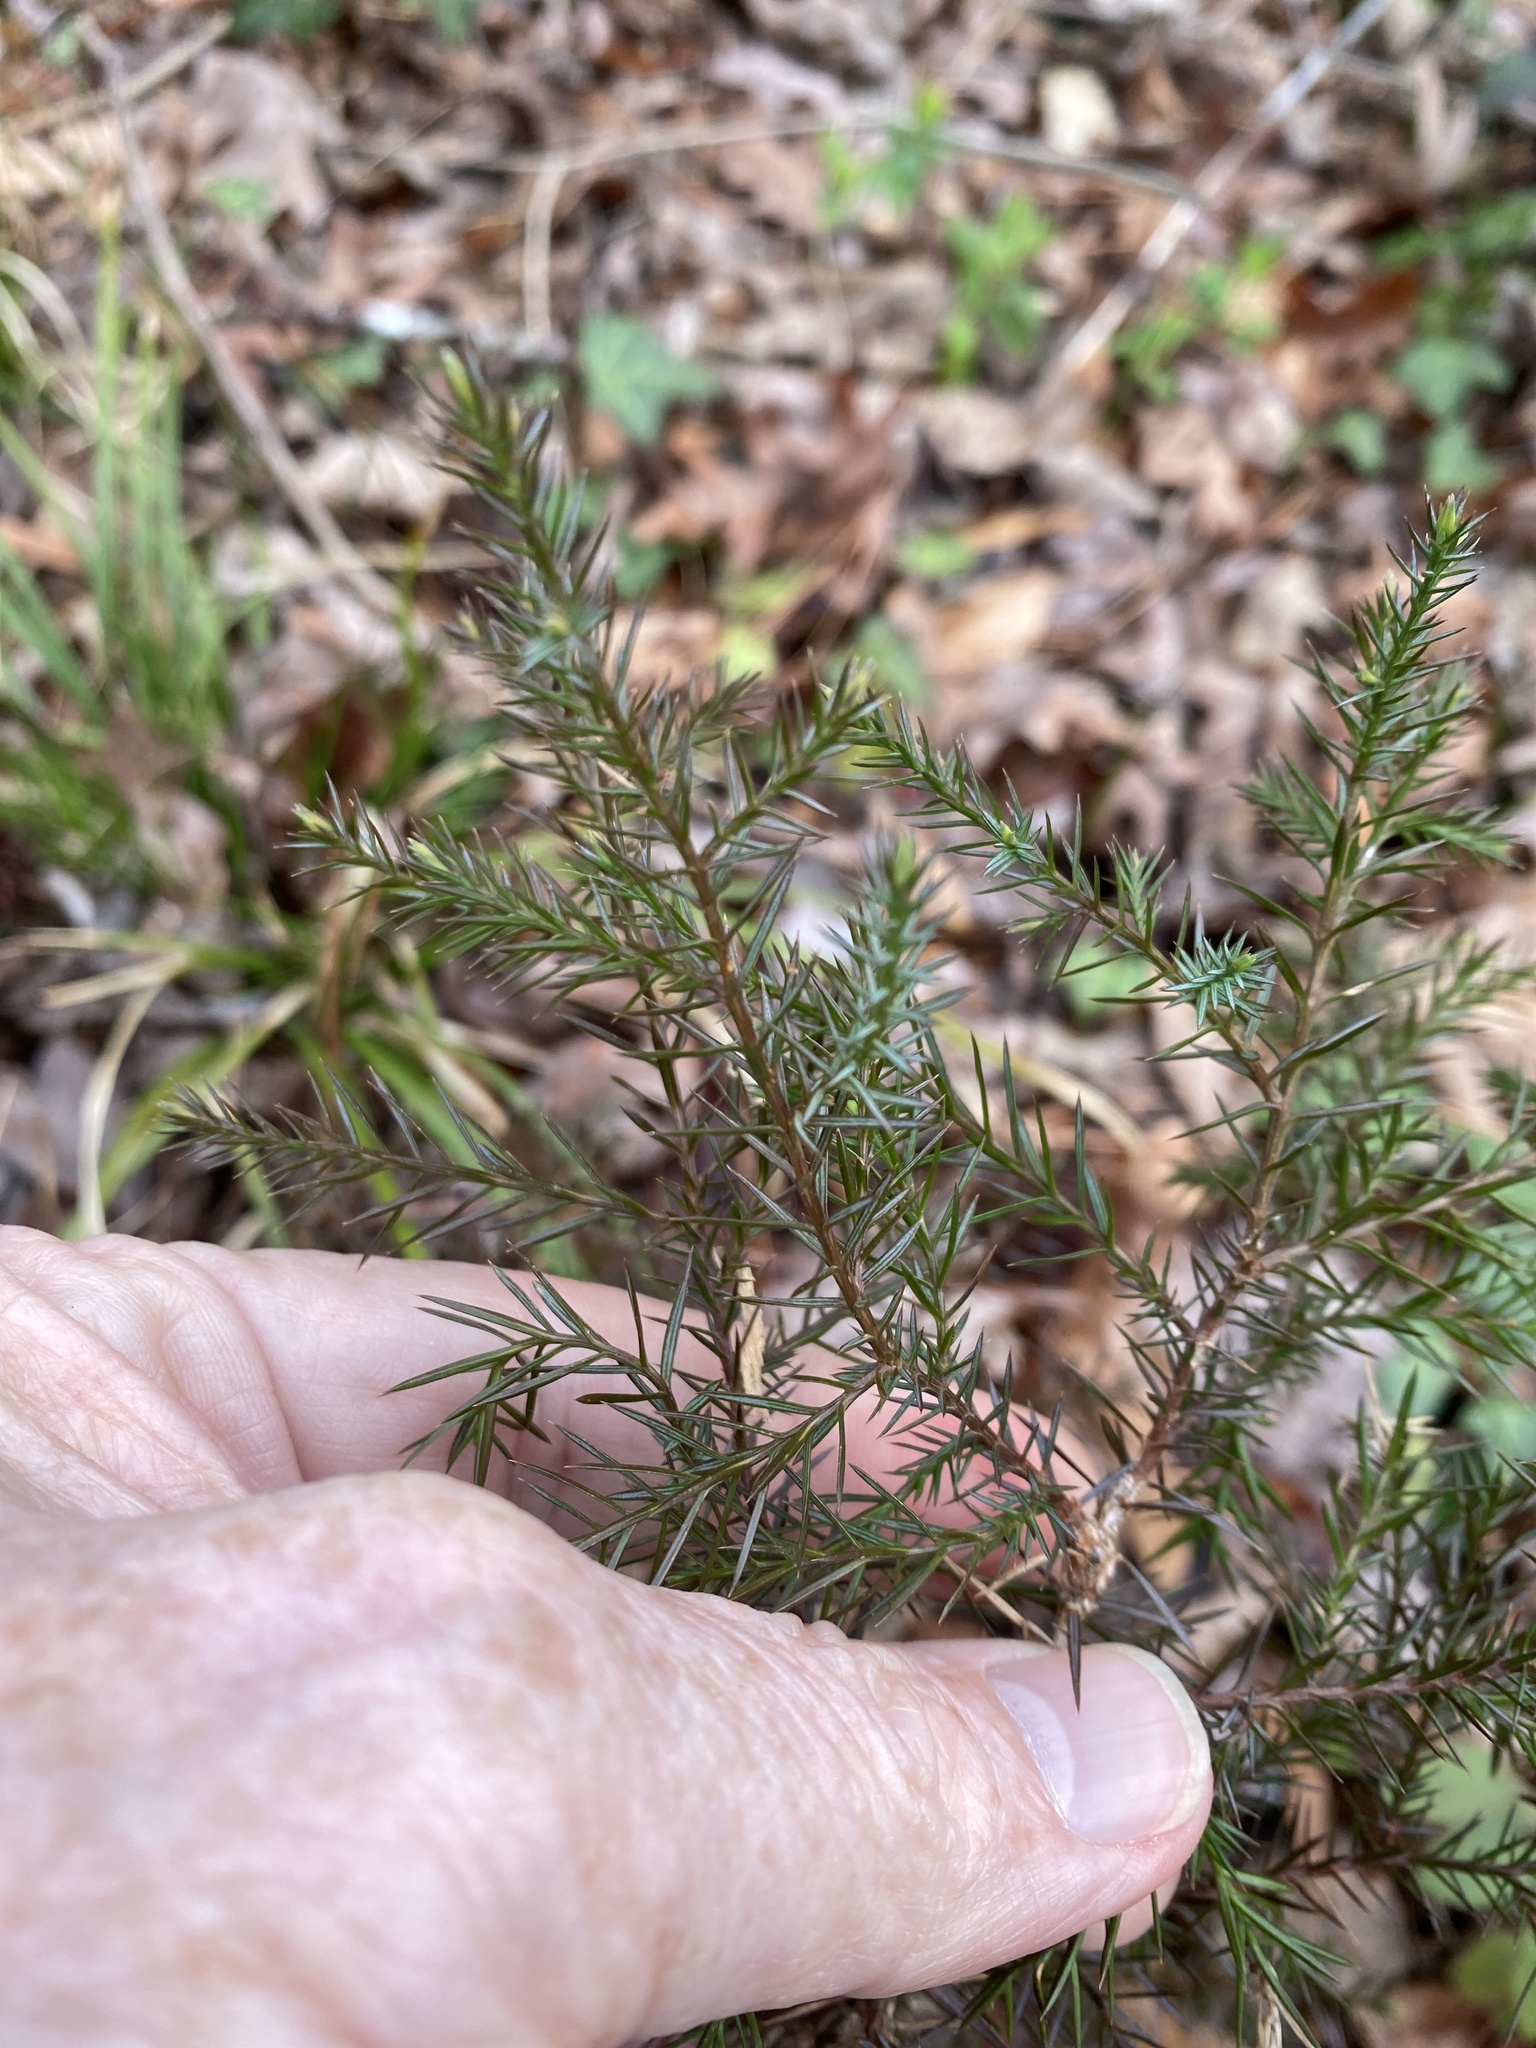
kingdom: Plantae
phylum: Tracheophyta
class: Pinopsida
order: Pinales
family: Cupressaceae
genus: Juniperus
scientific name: Juniperus virginiana
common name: Red juniper
